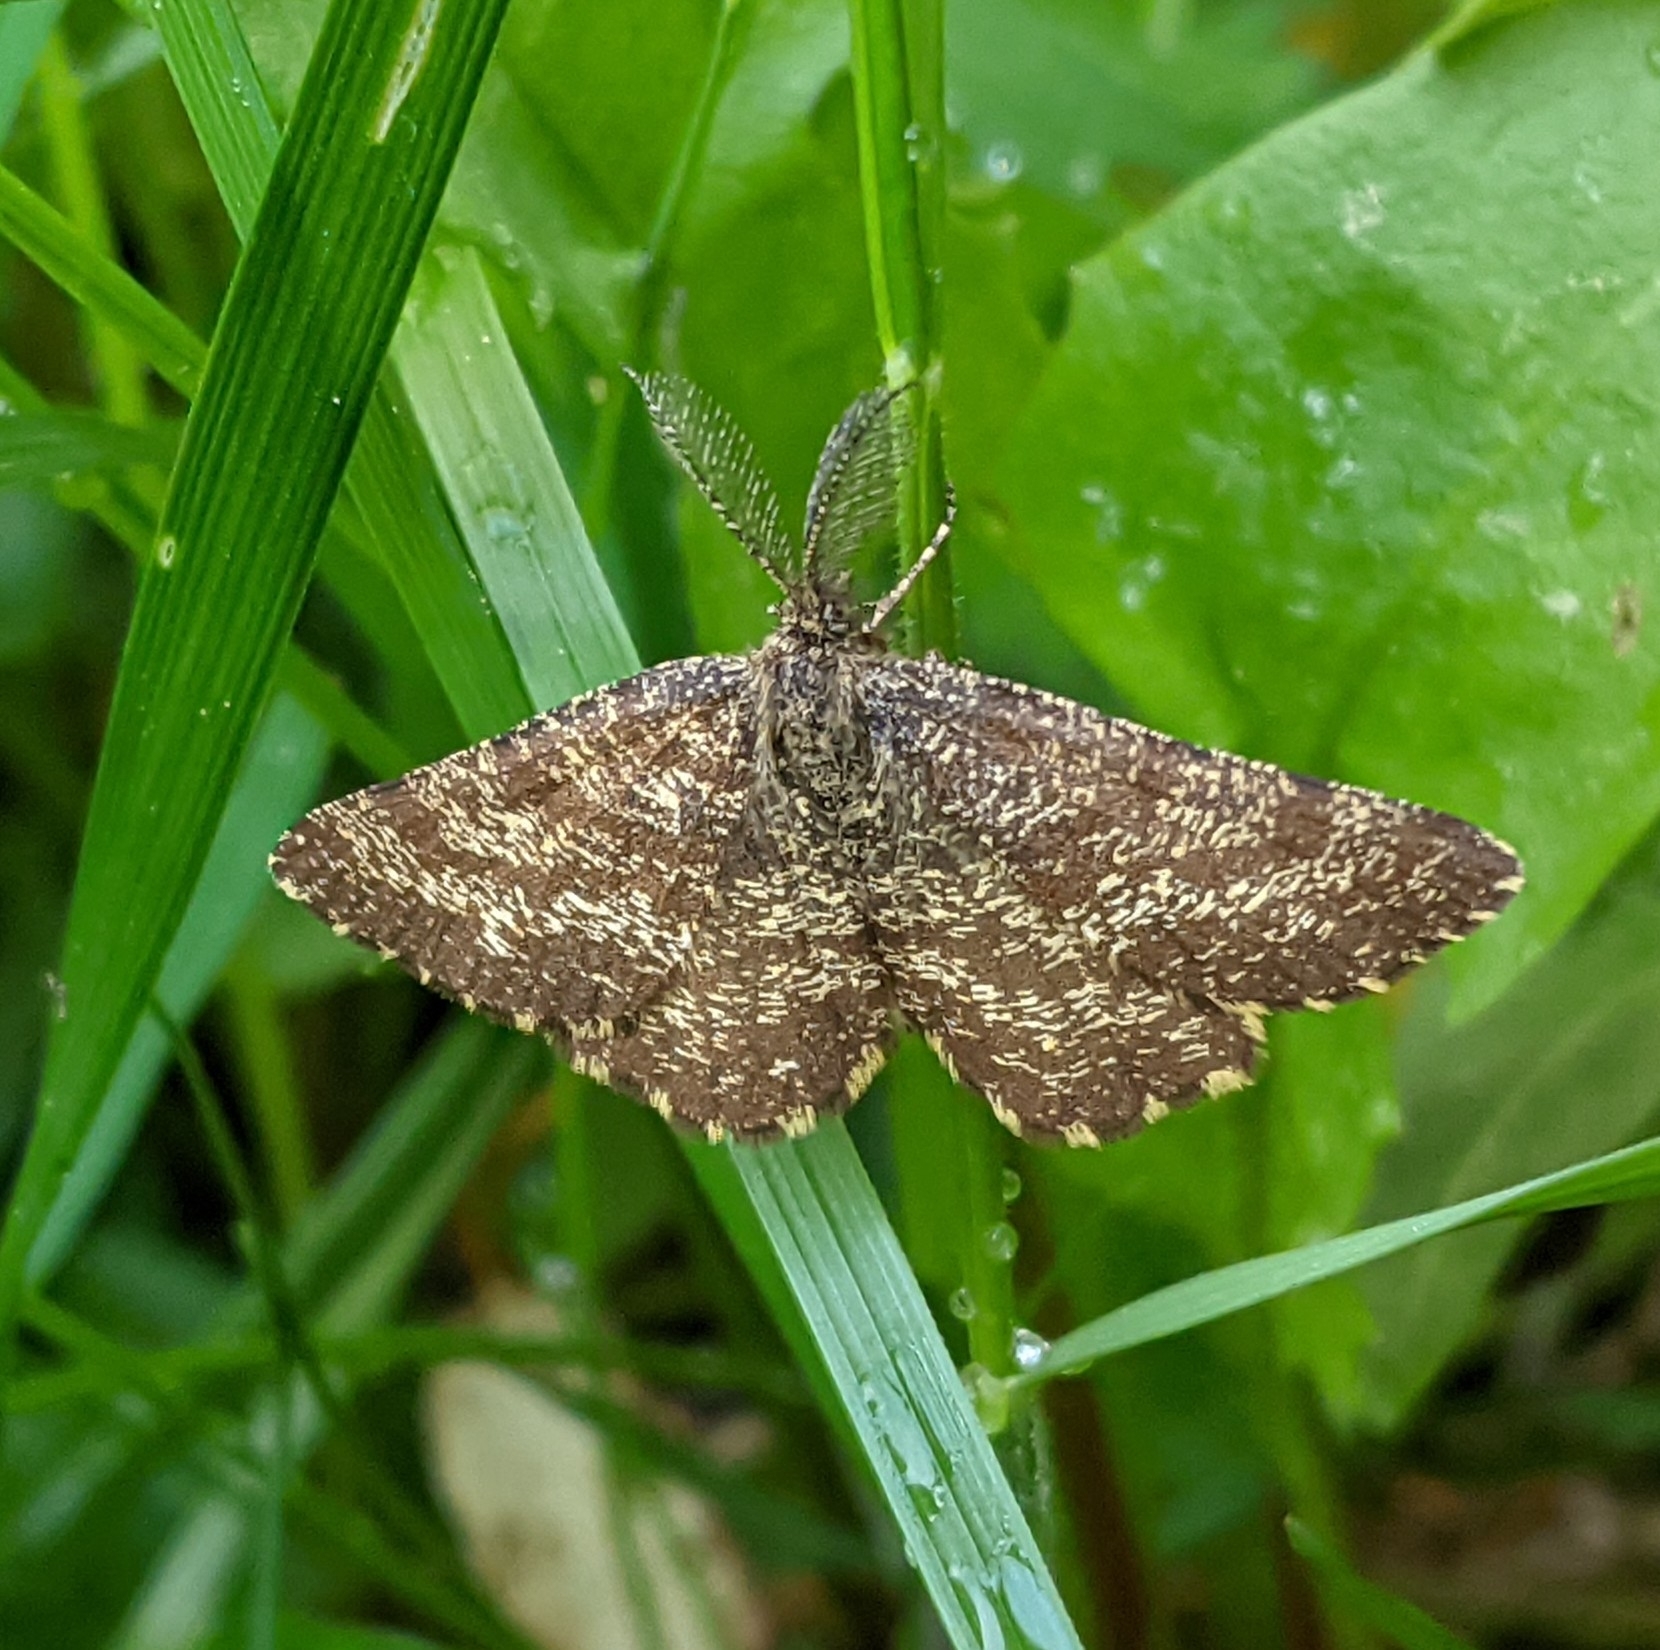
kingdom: Animalia
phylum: Arthropoda
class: Insecta
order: Lepidoptera
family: Geometridae
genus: Ematurga
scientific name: Ematurga atomaria
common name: Common heath
